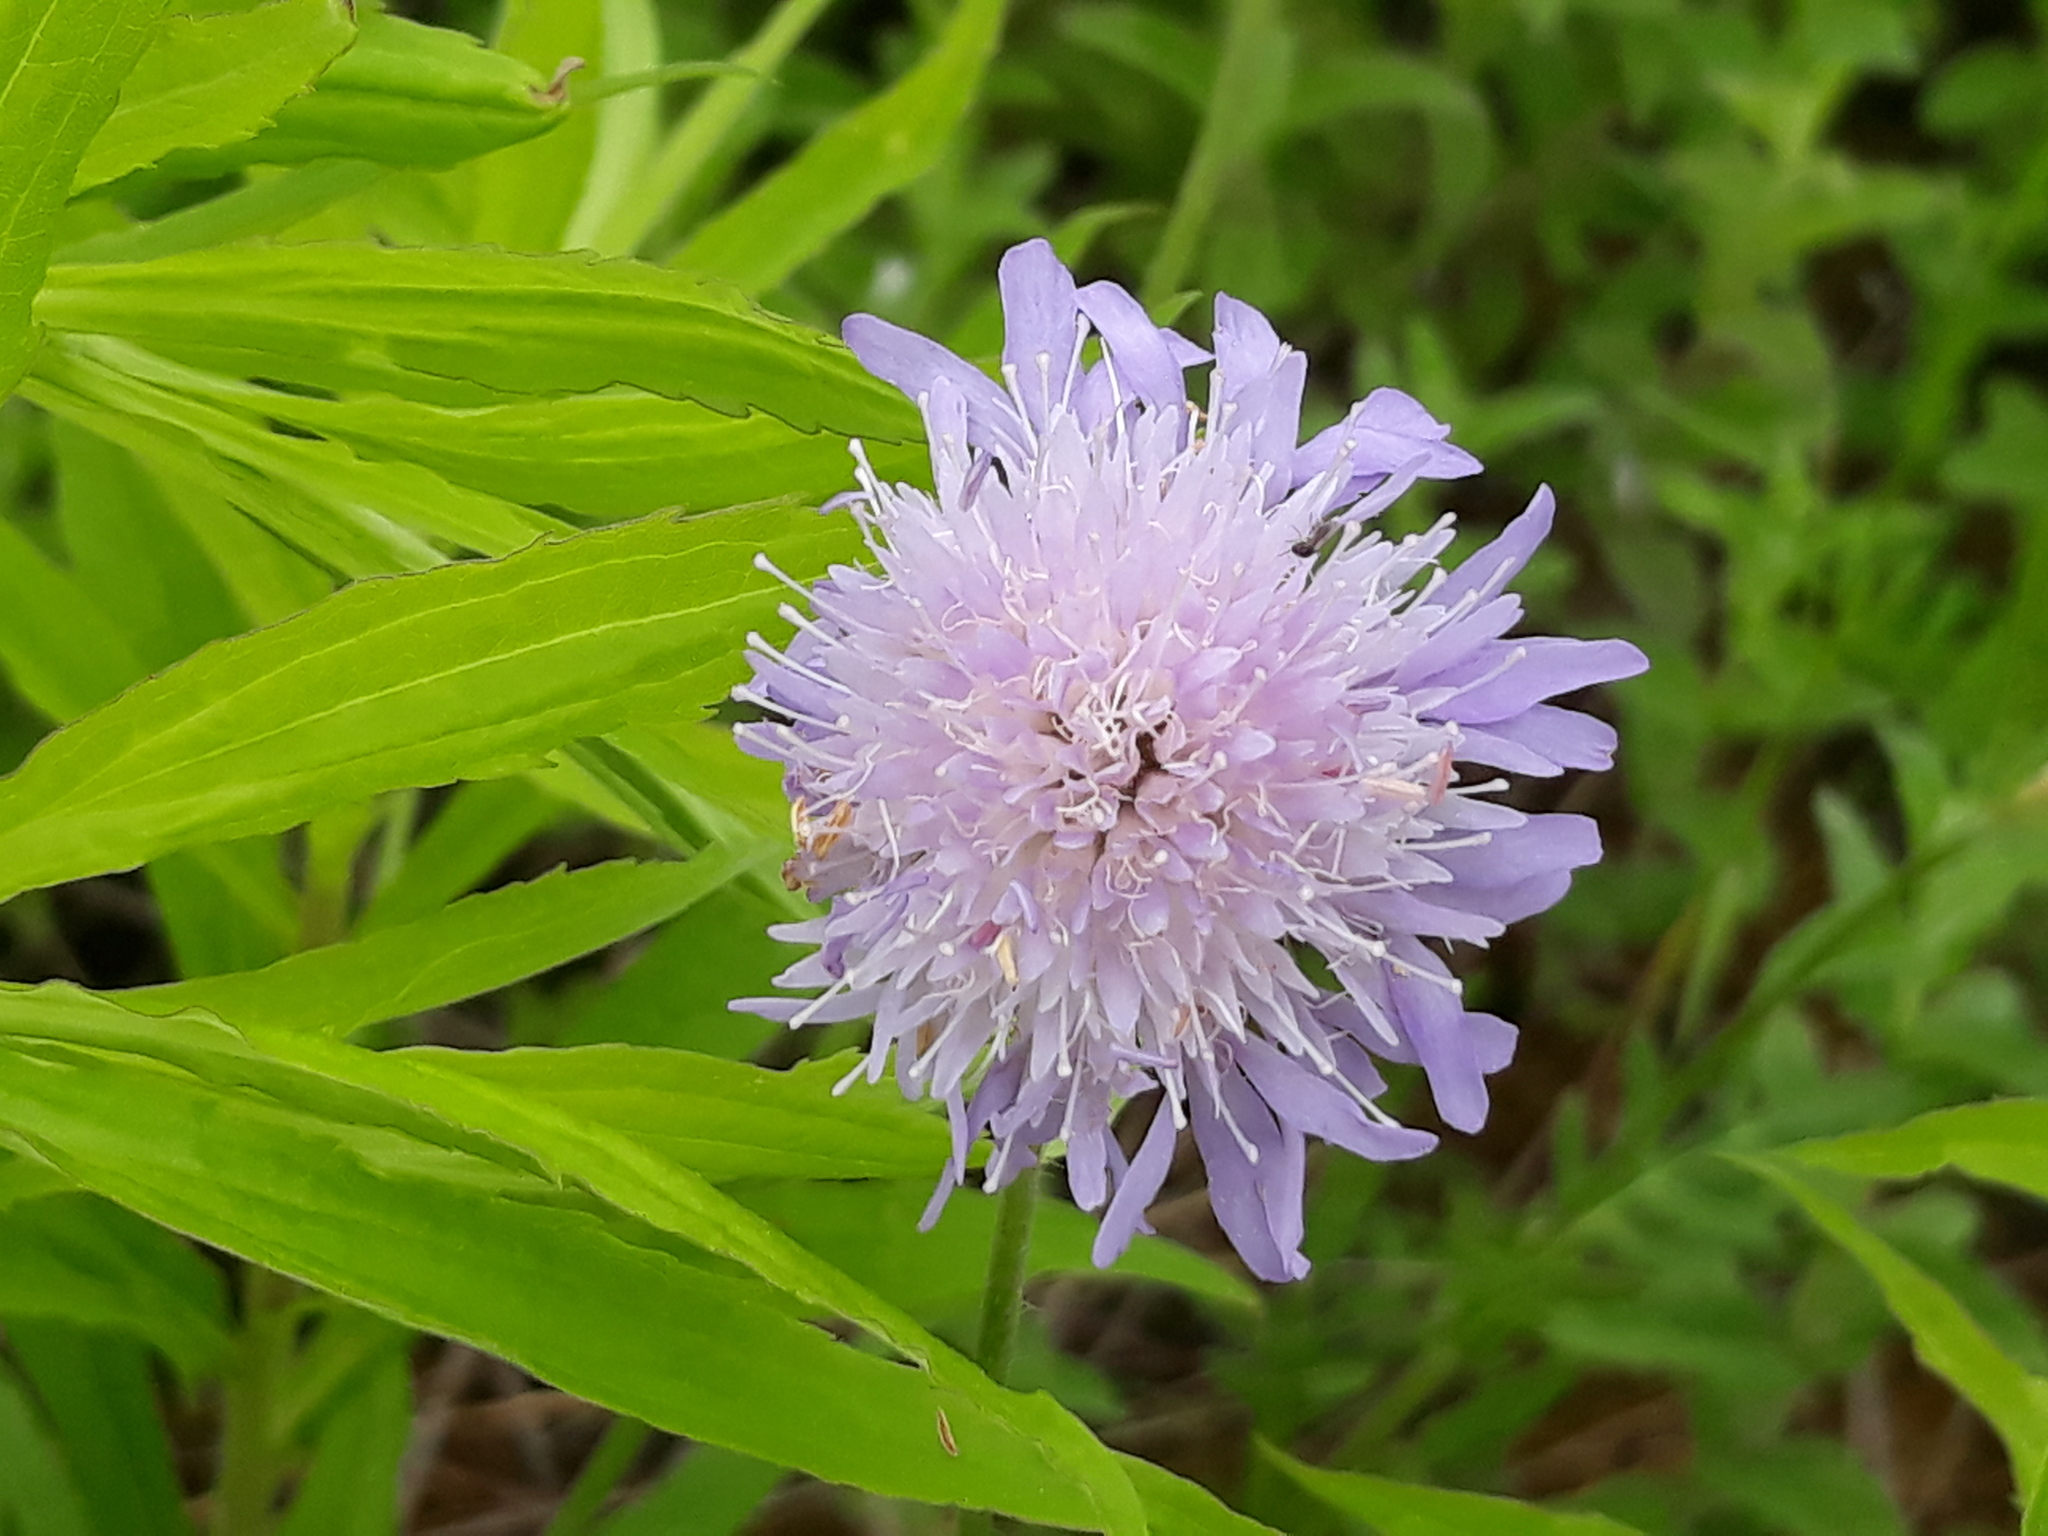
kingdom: Plantae
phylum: Tracheophyta
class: Magnoliopsida
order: Dipsacales
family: Caprifoliaceae
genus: Knautia
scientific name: Knautia arvensis
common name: Field scabiosa
